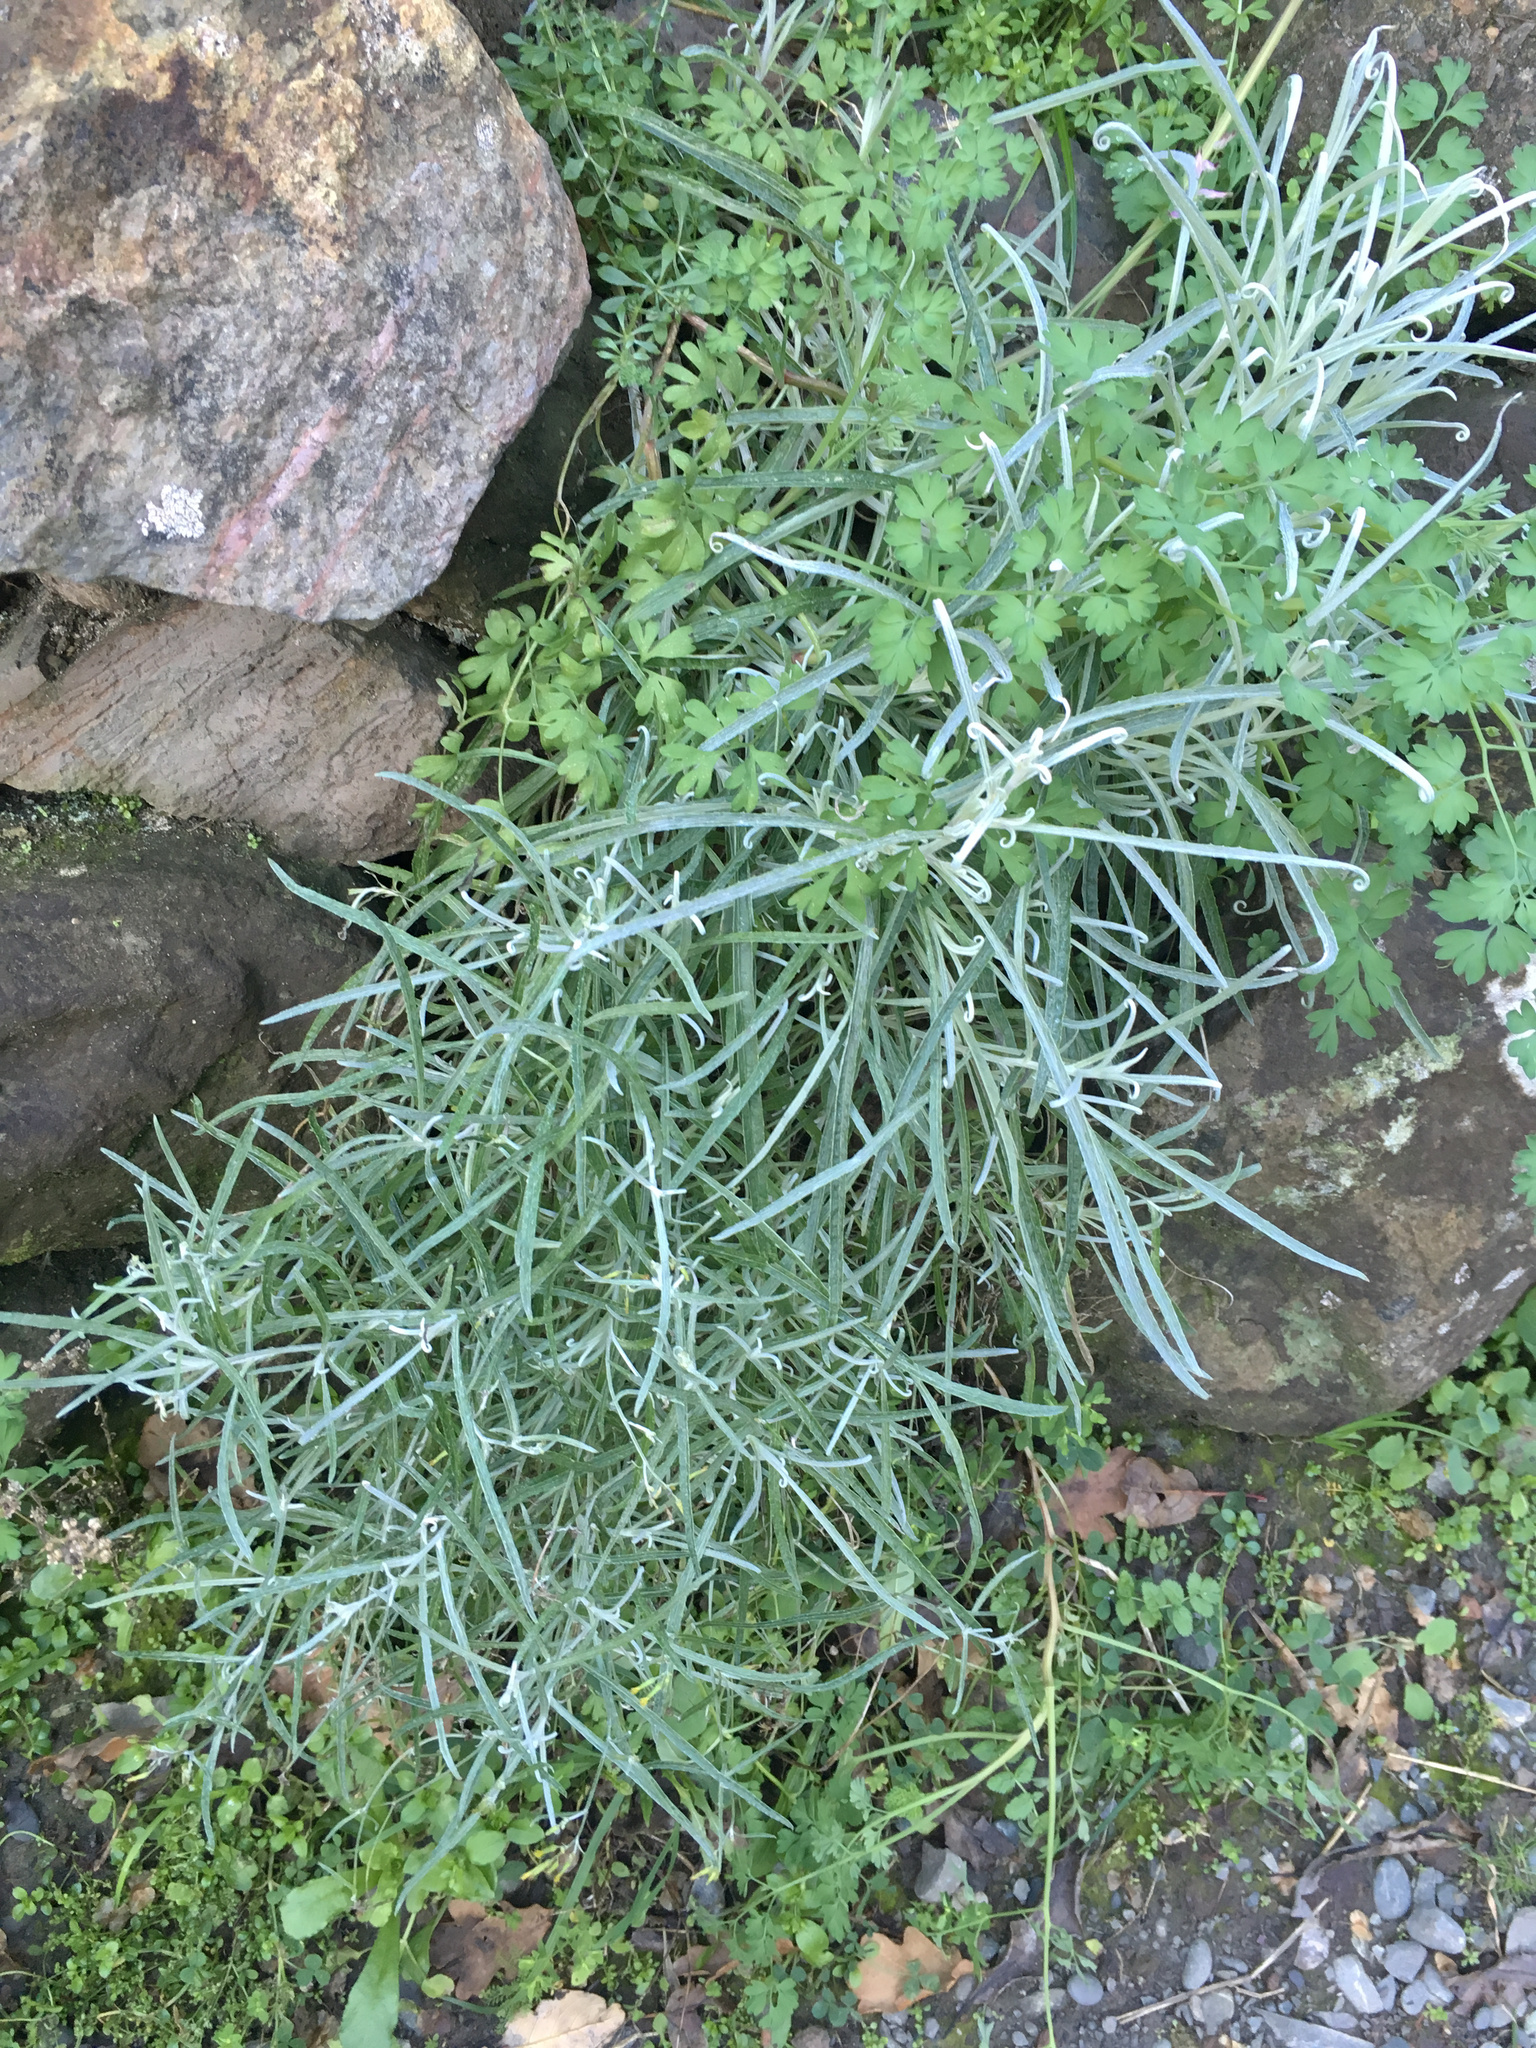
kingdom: Plantae
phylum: Tracheophyta
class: Magnoliopsida
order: Asterales
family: Asteraceae
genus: Senecio
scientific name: Senecio quadridentatus
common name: Cotton fireweed
